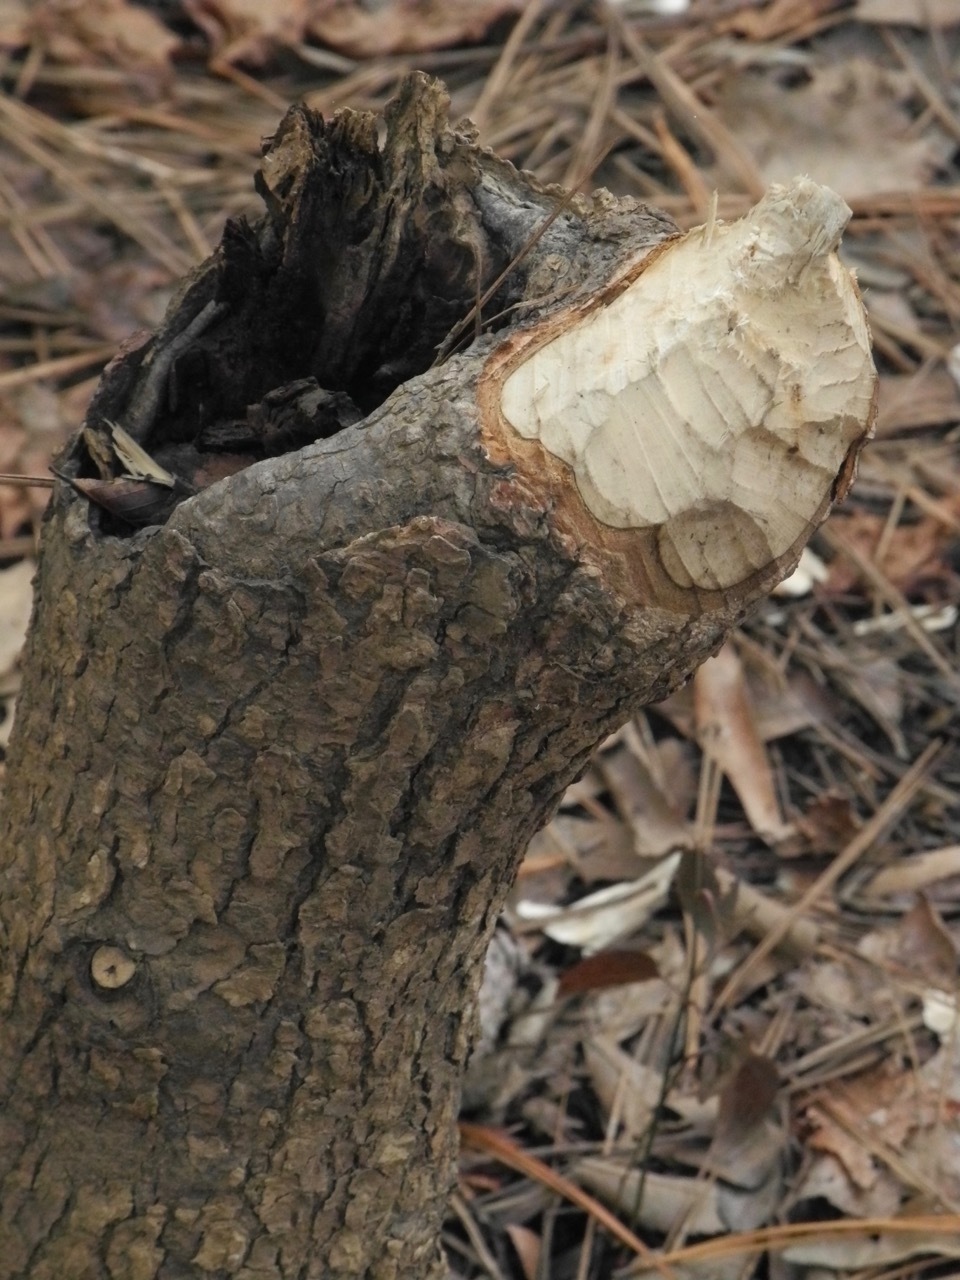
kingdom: Animalia
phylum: Chordata
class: Mammalia
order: Rodentia
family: Castoridae
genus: Castor
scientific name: Castor canadensis
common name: American beaver
